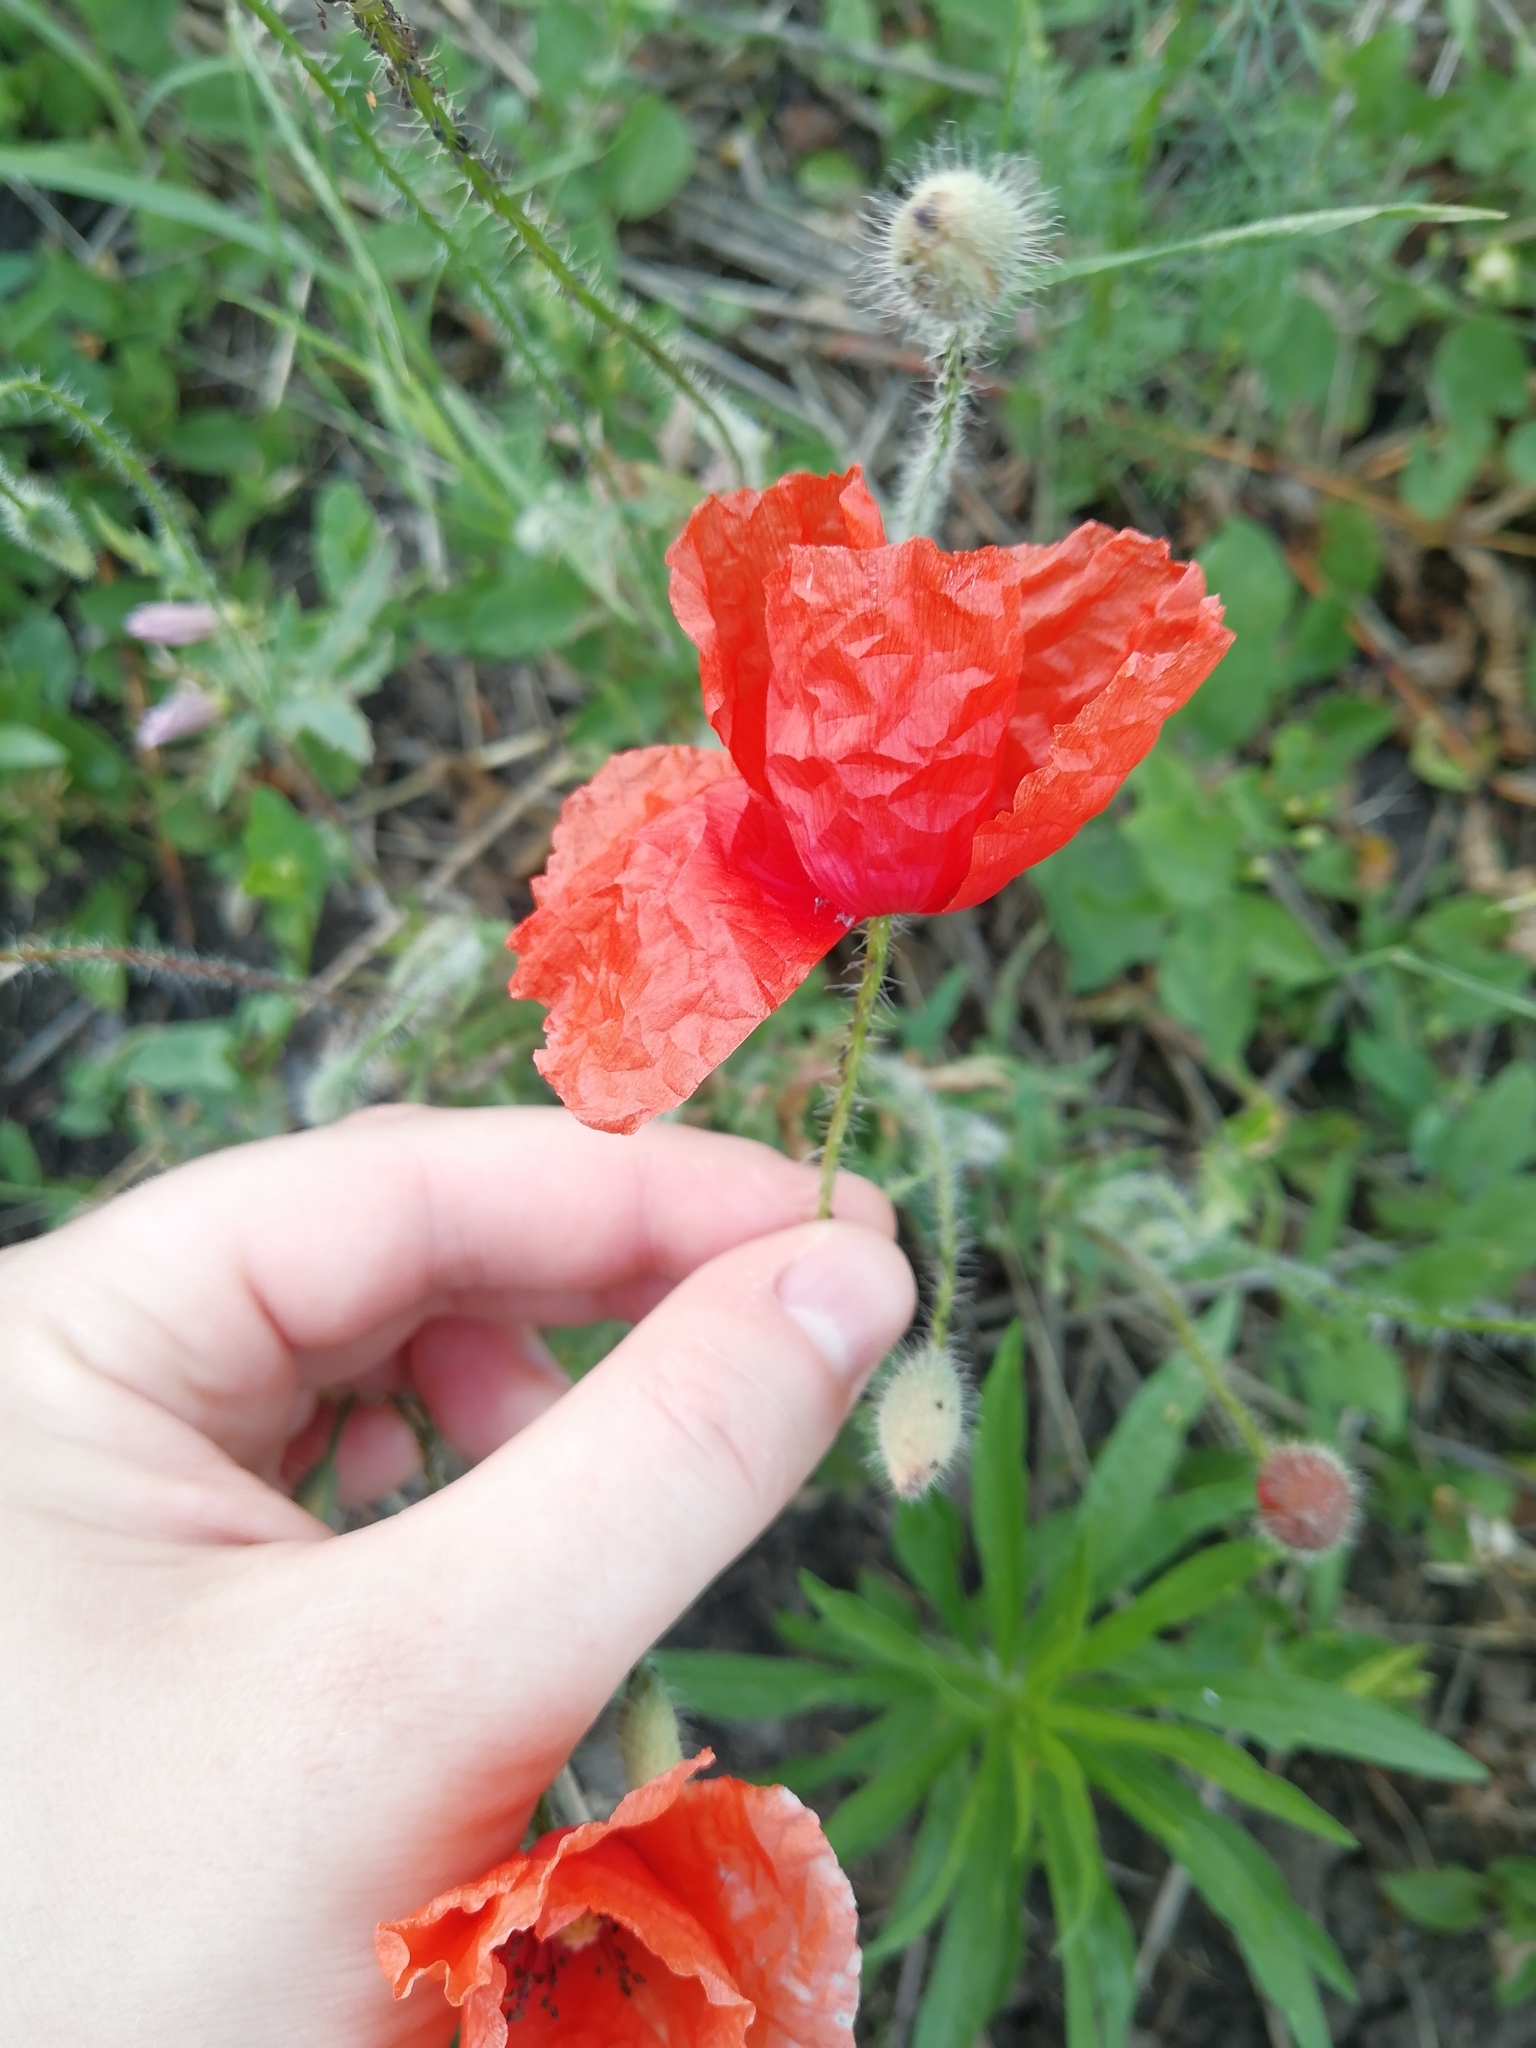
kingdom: Plantae
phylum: Tracheophyta
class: Magnoliopsida
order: Ranunculales
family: Papaveraceae
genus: Papaver
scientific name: Papaver rhoeas
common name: Corn poppy
